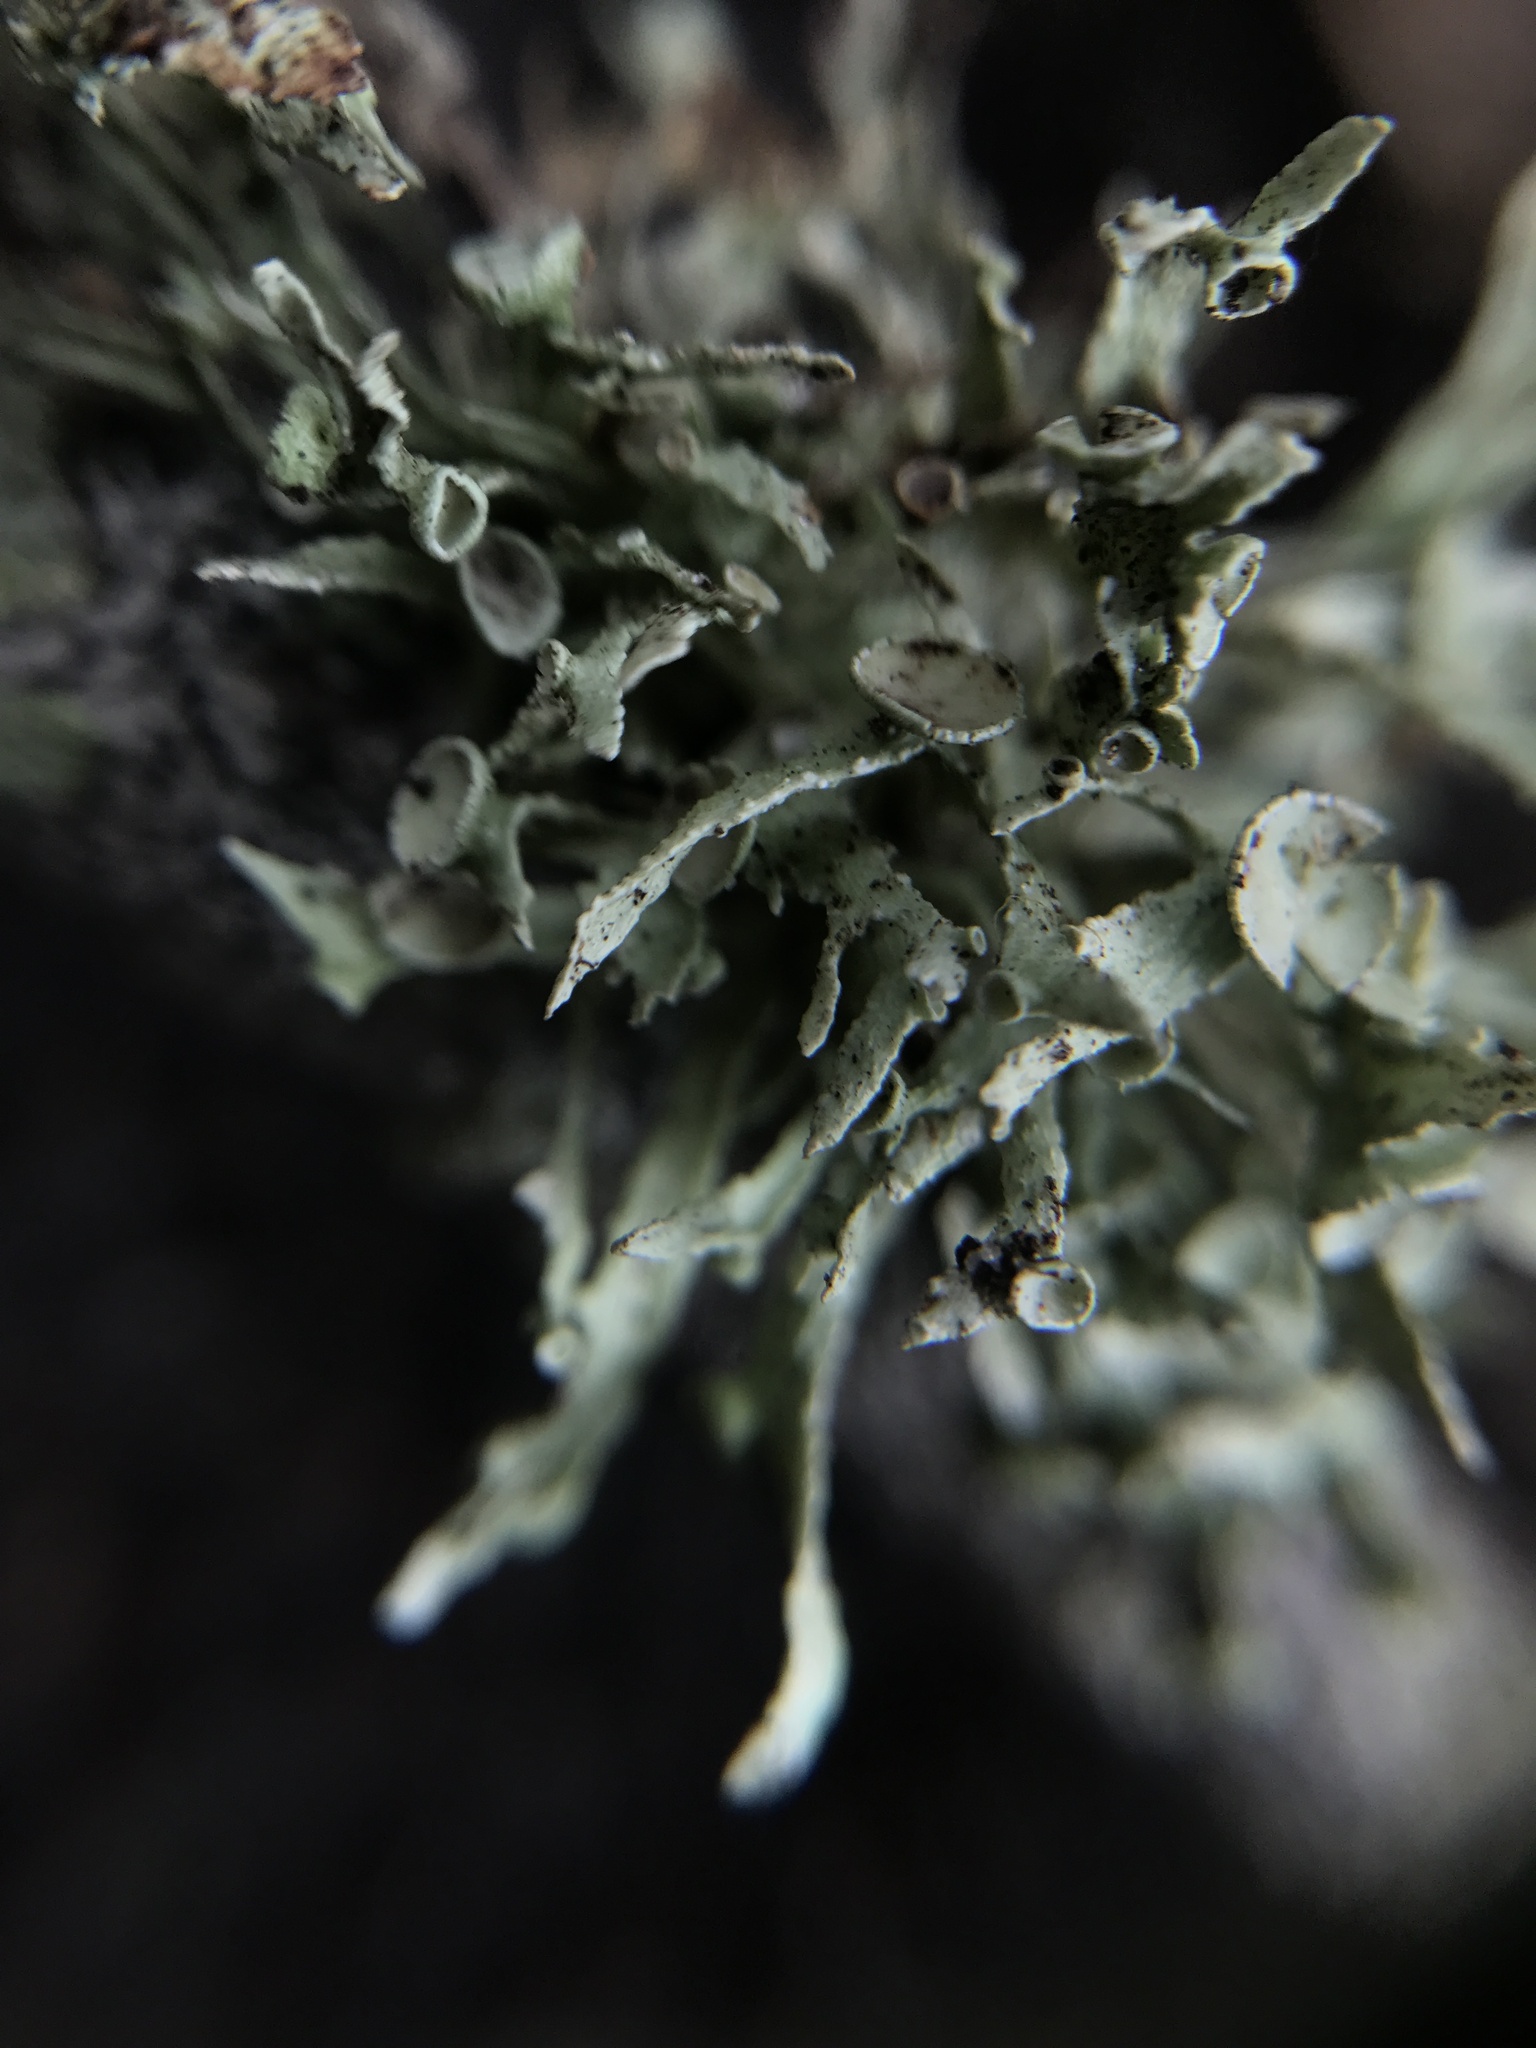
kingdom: Fungi
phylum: Ascomycota
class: Lecanoromycetes
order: Lecanorales
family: Ramalinaceae
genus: Ramalina
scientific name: Ramalina complanata
